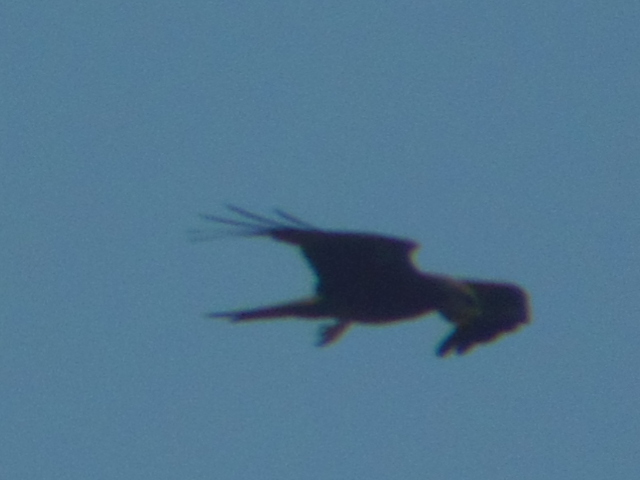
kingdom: Animalia
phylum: Chordata
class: Aves
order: Accipitriformes
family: Accipitridae
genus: Milvus
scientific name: Milvus migrans
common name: Black kite
